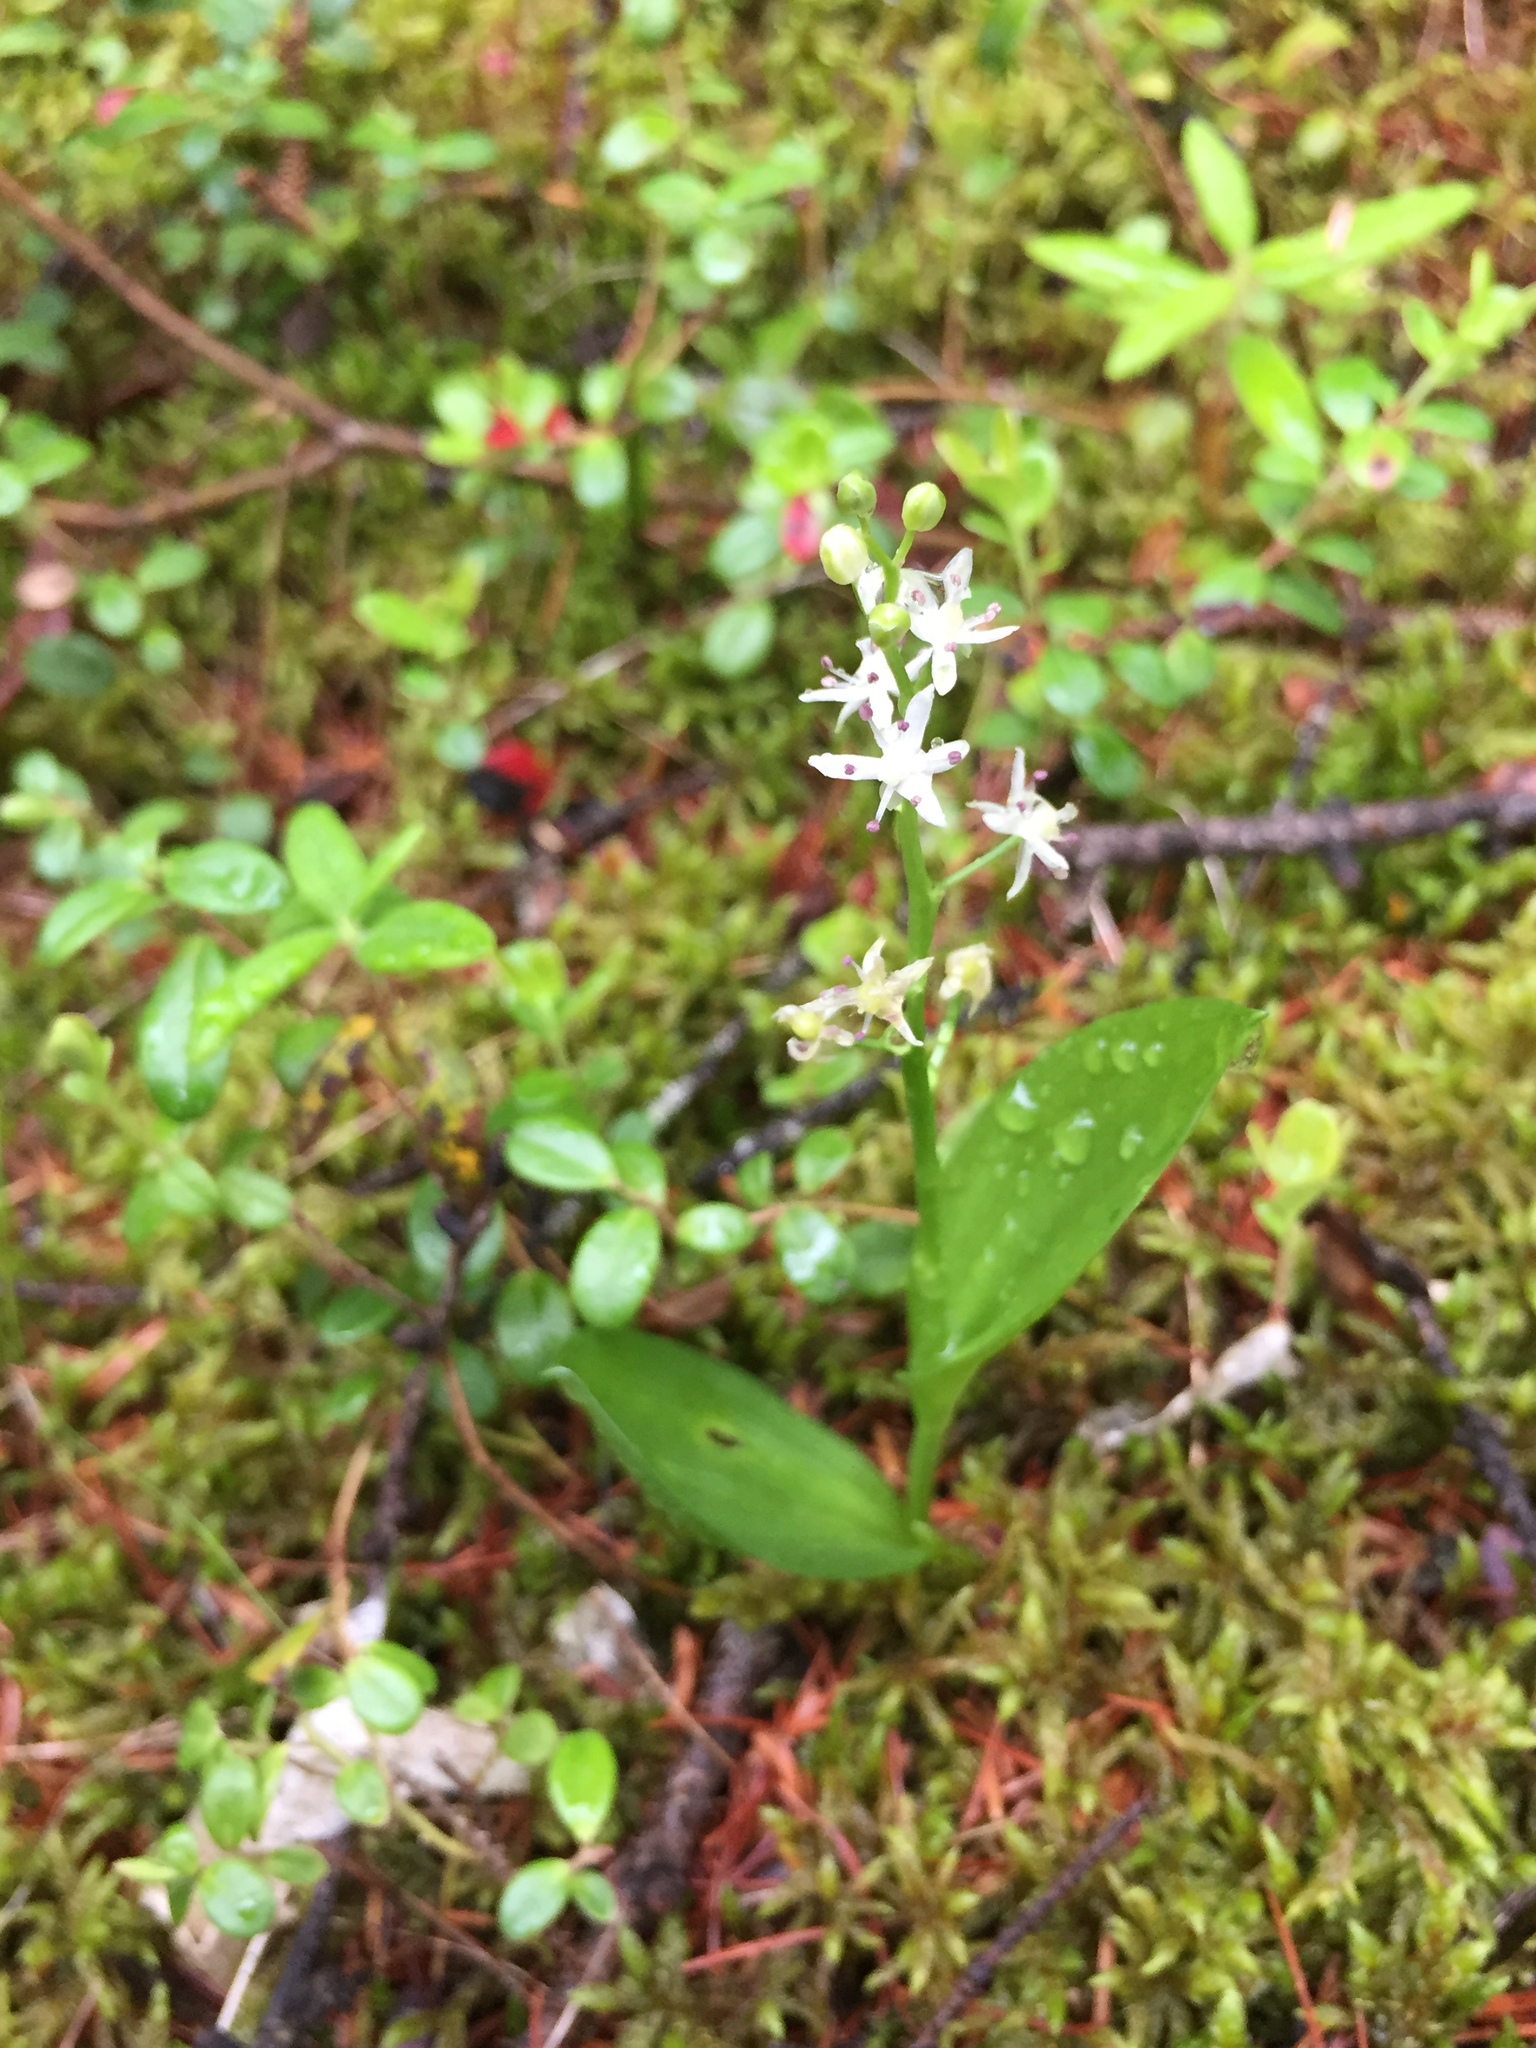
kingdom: Plantae
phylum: Tracheophyta
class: Liliopsida
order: Asparagales
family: Asparagaceae
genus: Maianthemum
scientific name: Maianthemum trifolium
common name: Swamp false solomon's seal
